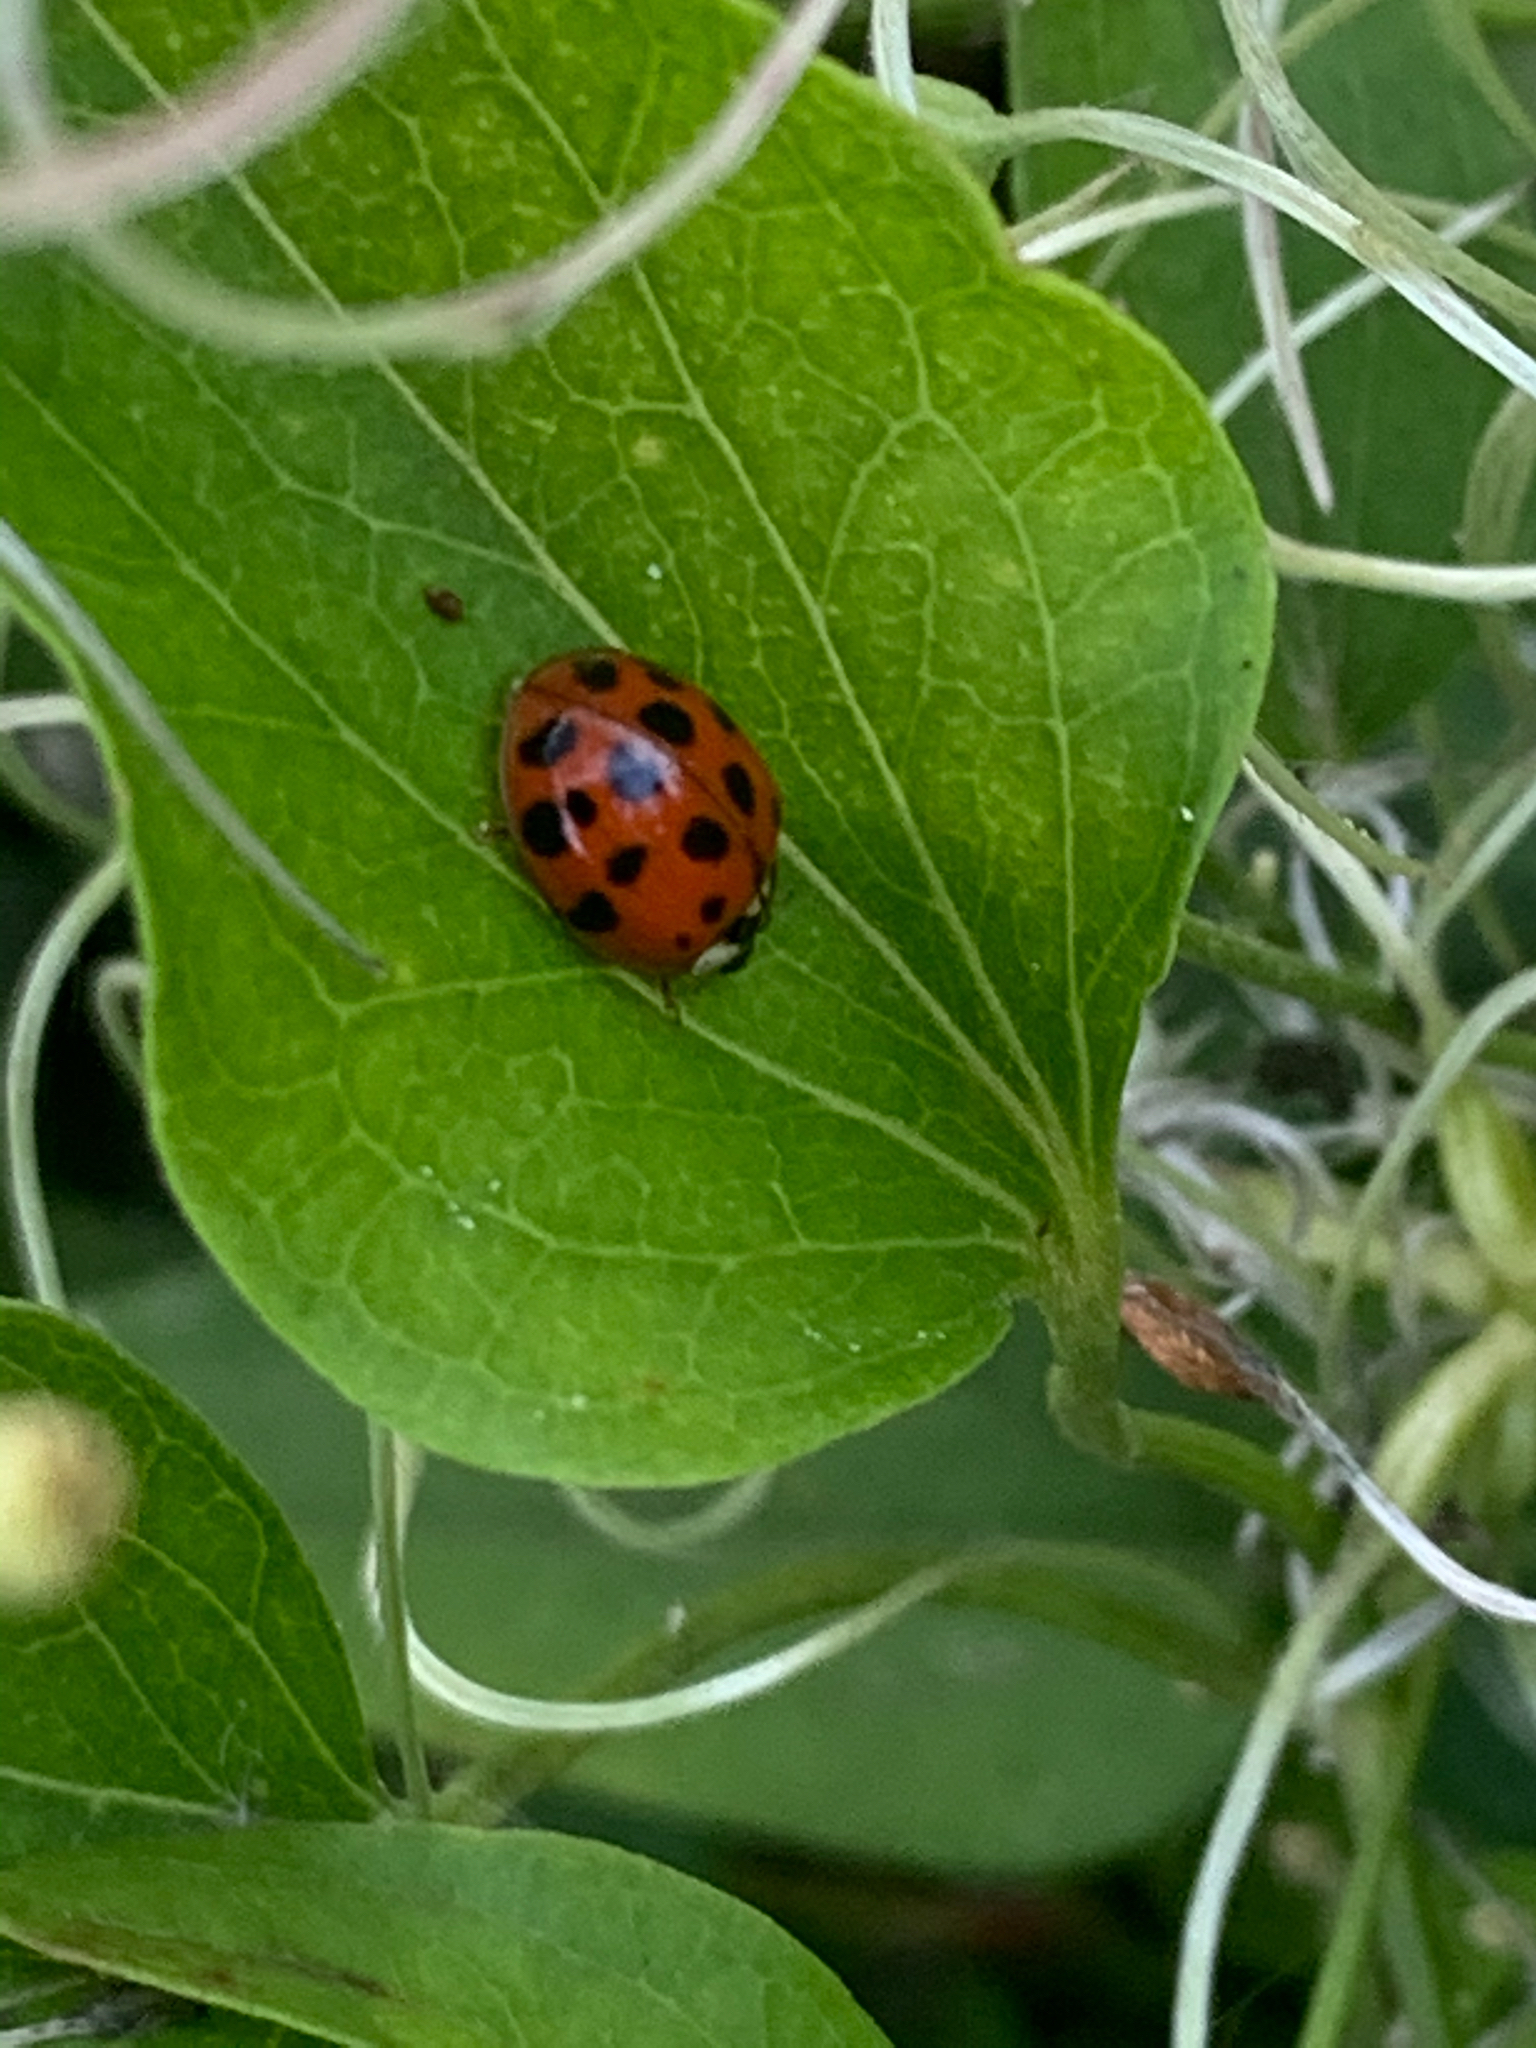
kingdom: Animalia
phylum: Arthropoda
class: Insecta
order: Coleoptera
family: Coccinellidae
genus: Harmonia
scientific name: Harmonia axyridis
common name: Harlequin ladybird
